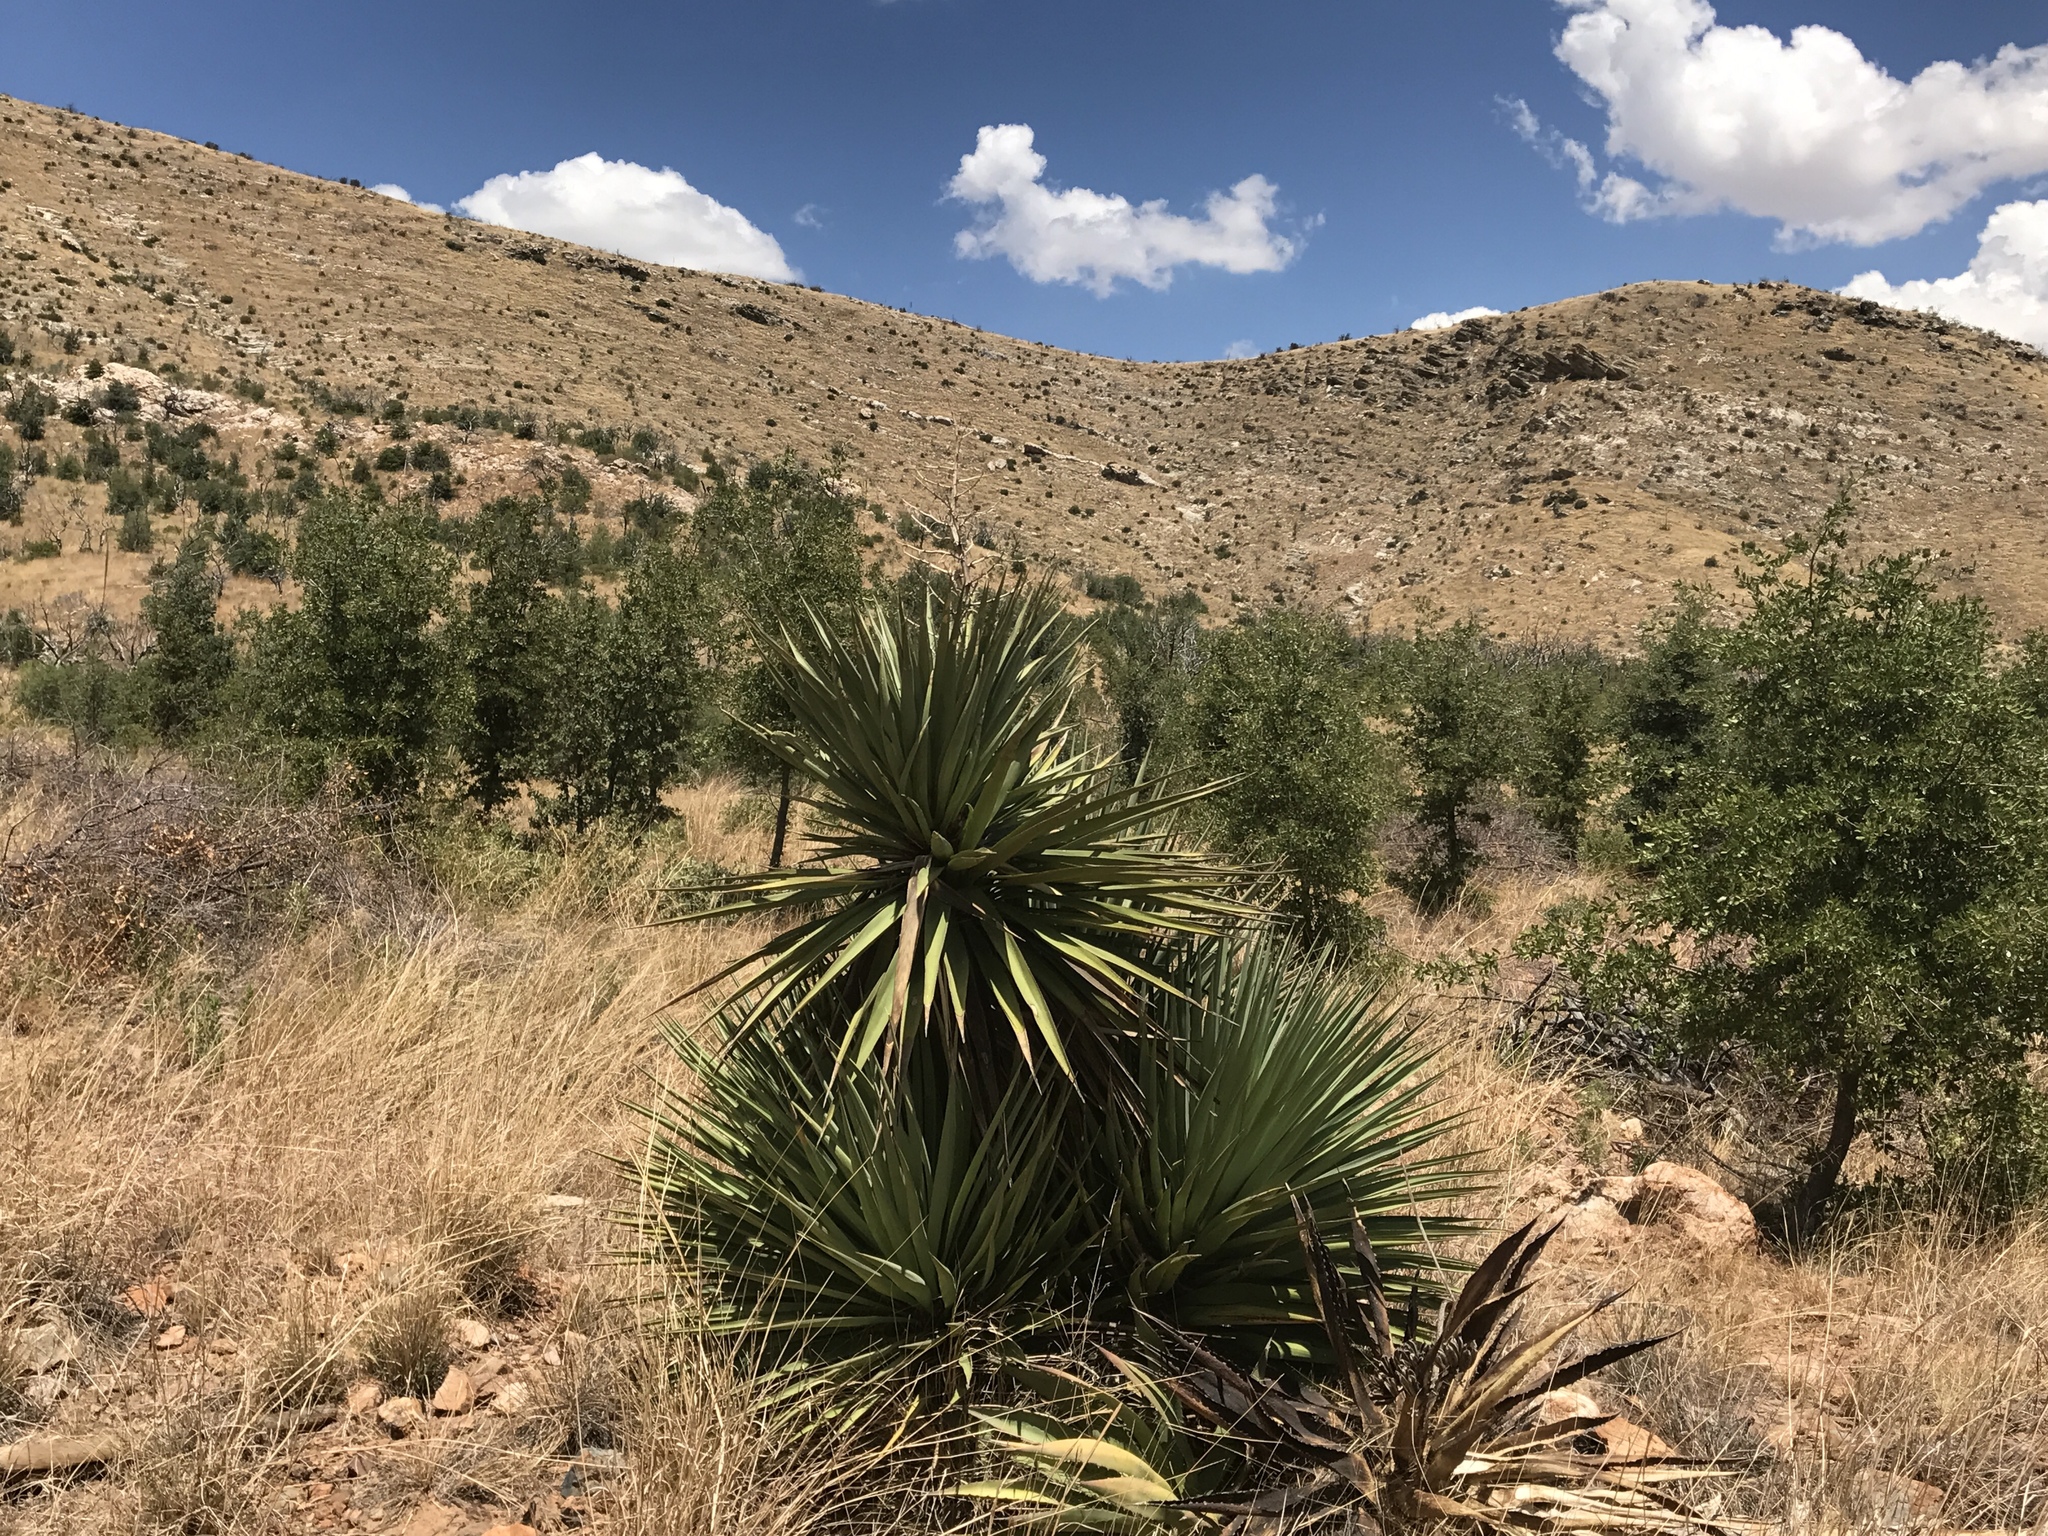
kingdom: Plantae
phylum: Tracheophyta
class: Liliopsida
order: Asparagales
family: Asparagaceae
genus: Yucca
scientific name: Yucca madrensis
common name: Hoary yucca
